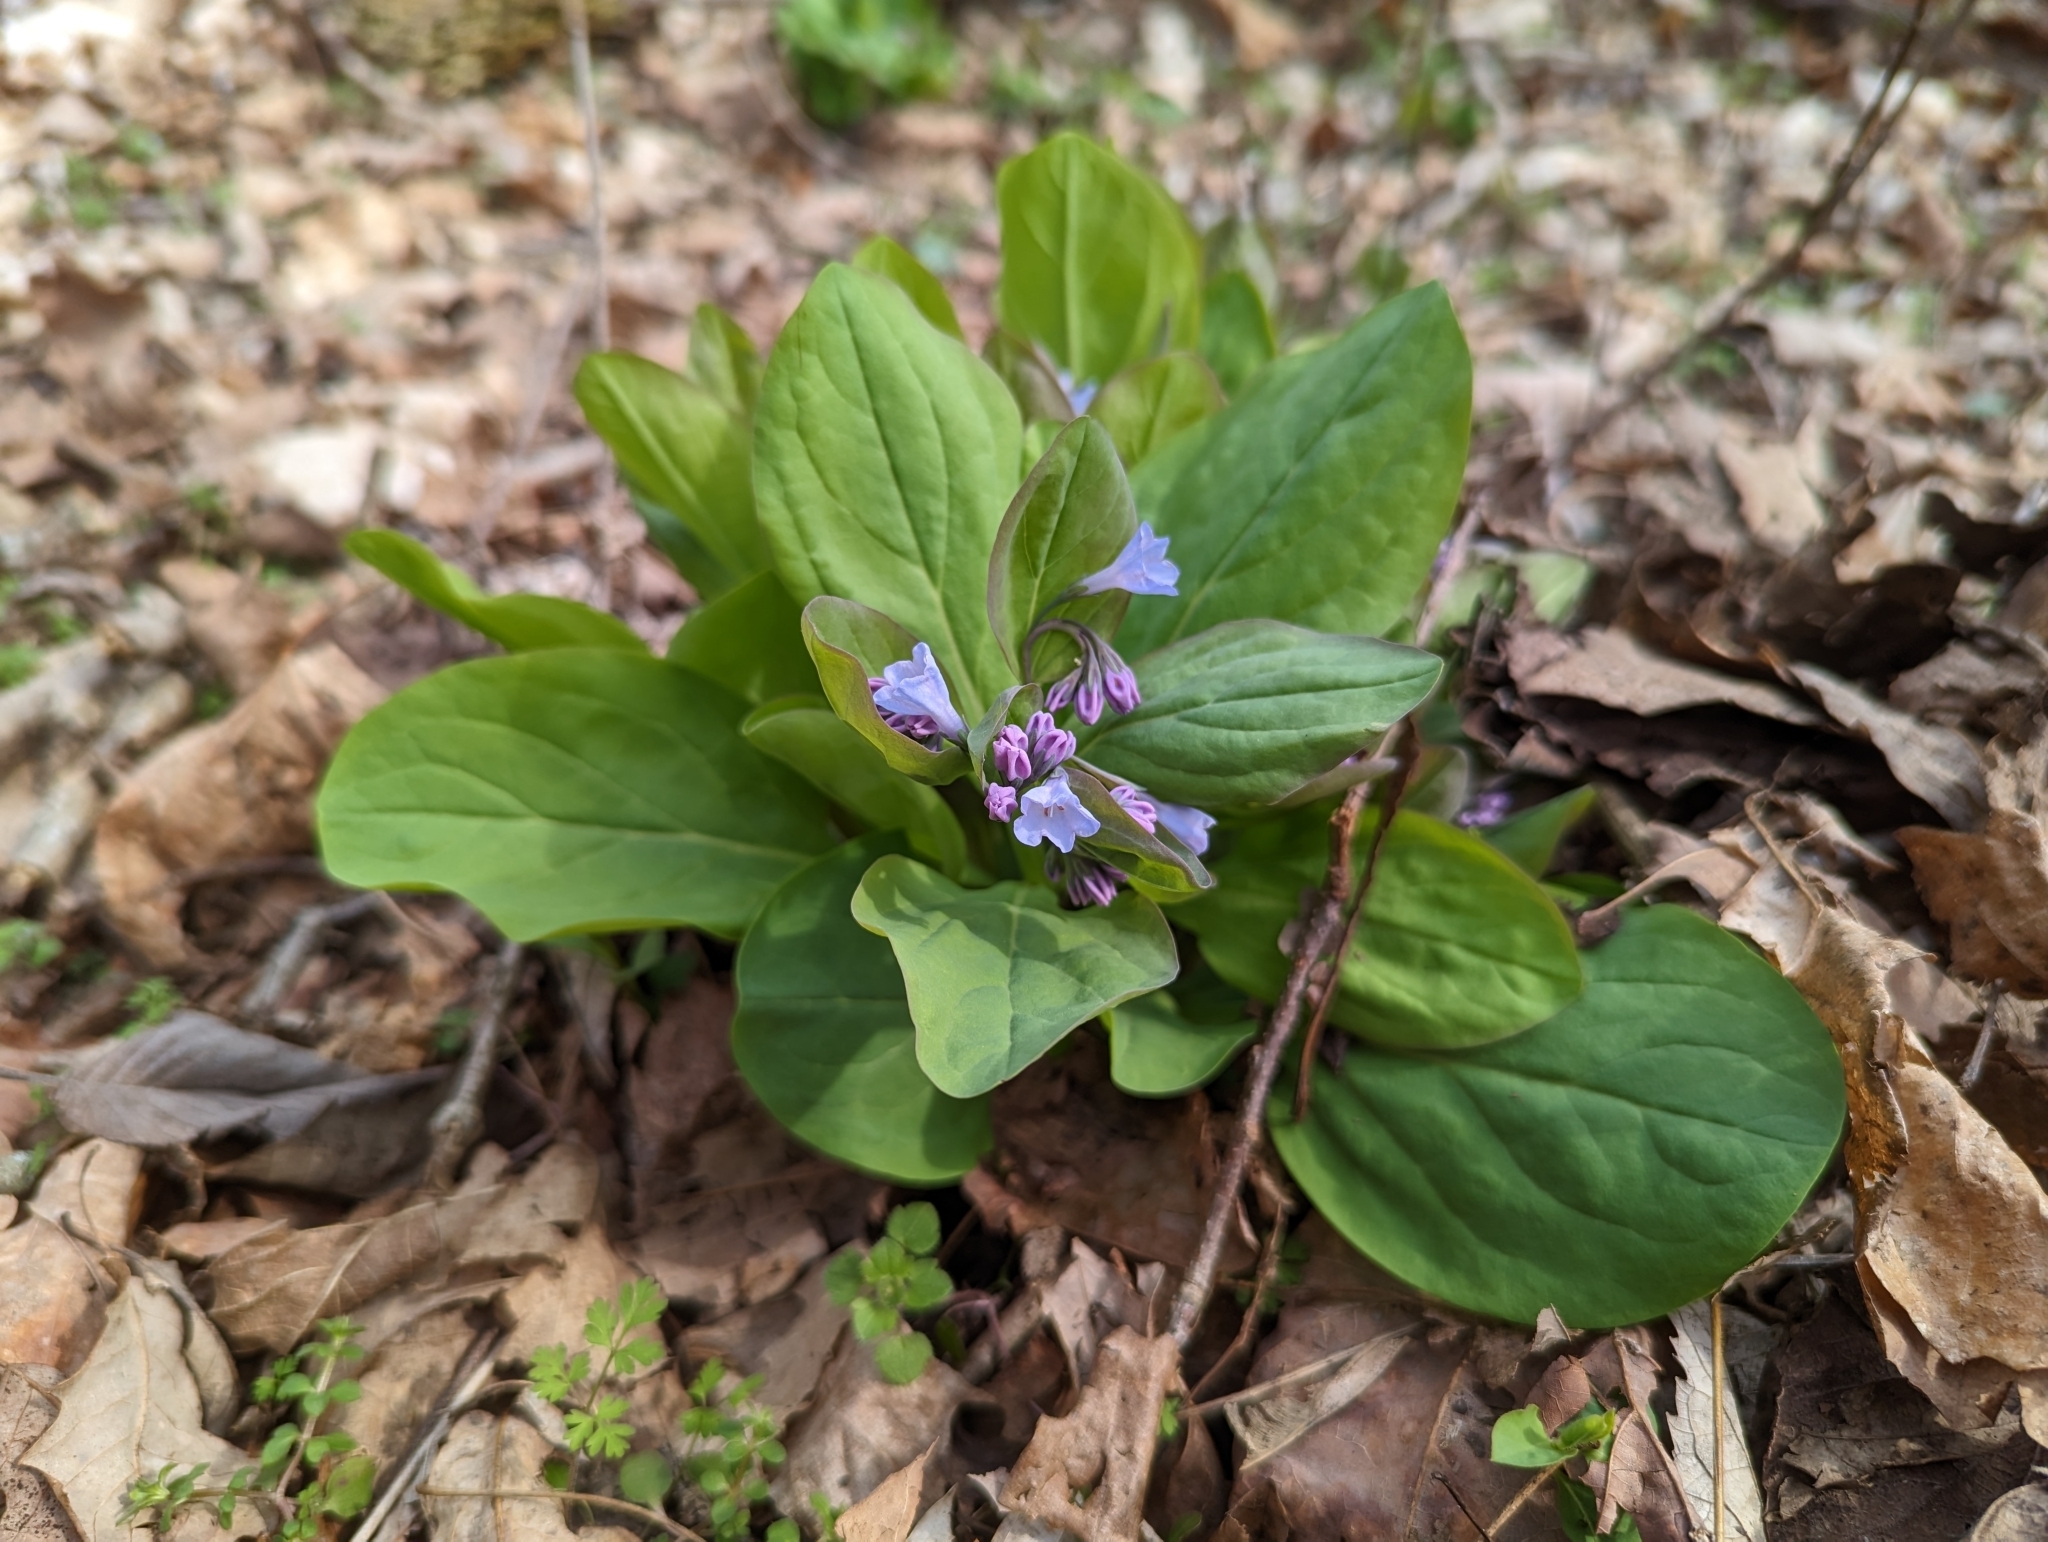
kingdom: Plantae
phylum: Tracheophyta
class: Magnoliopsida
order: Boraginales
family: Boraginaceae
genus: Mertensia
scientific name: Mertensia virginica
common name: Virginia bluebells
